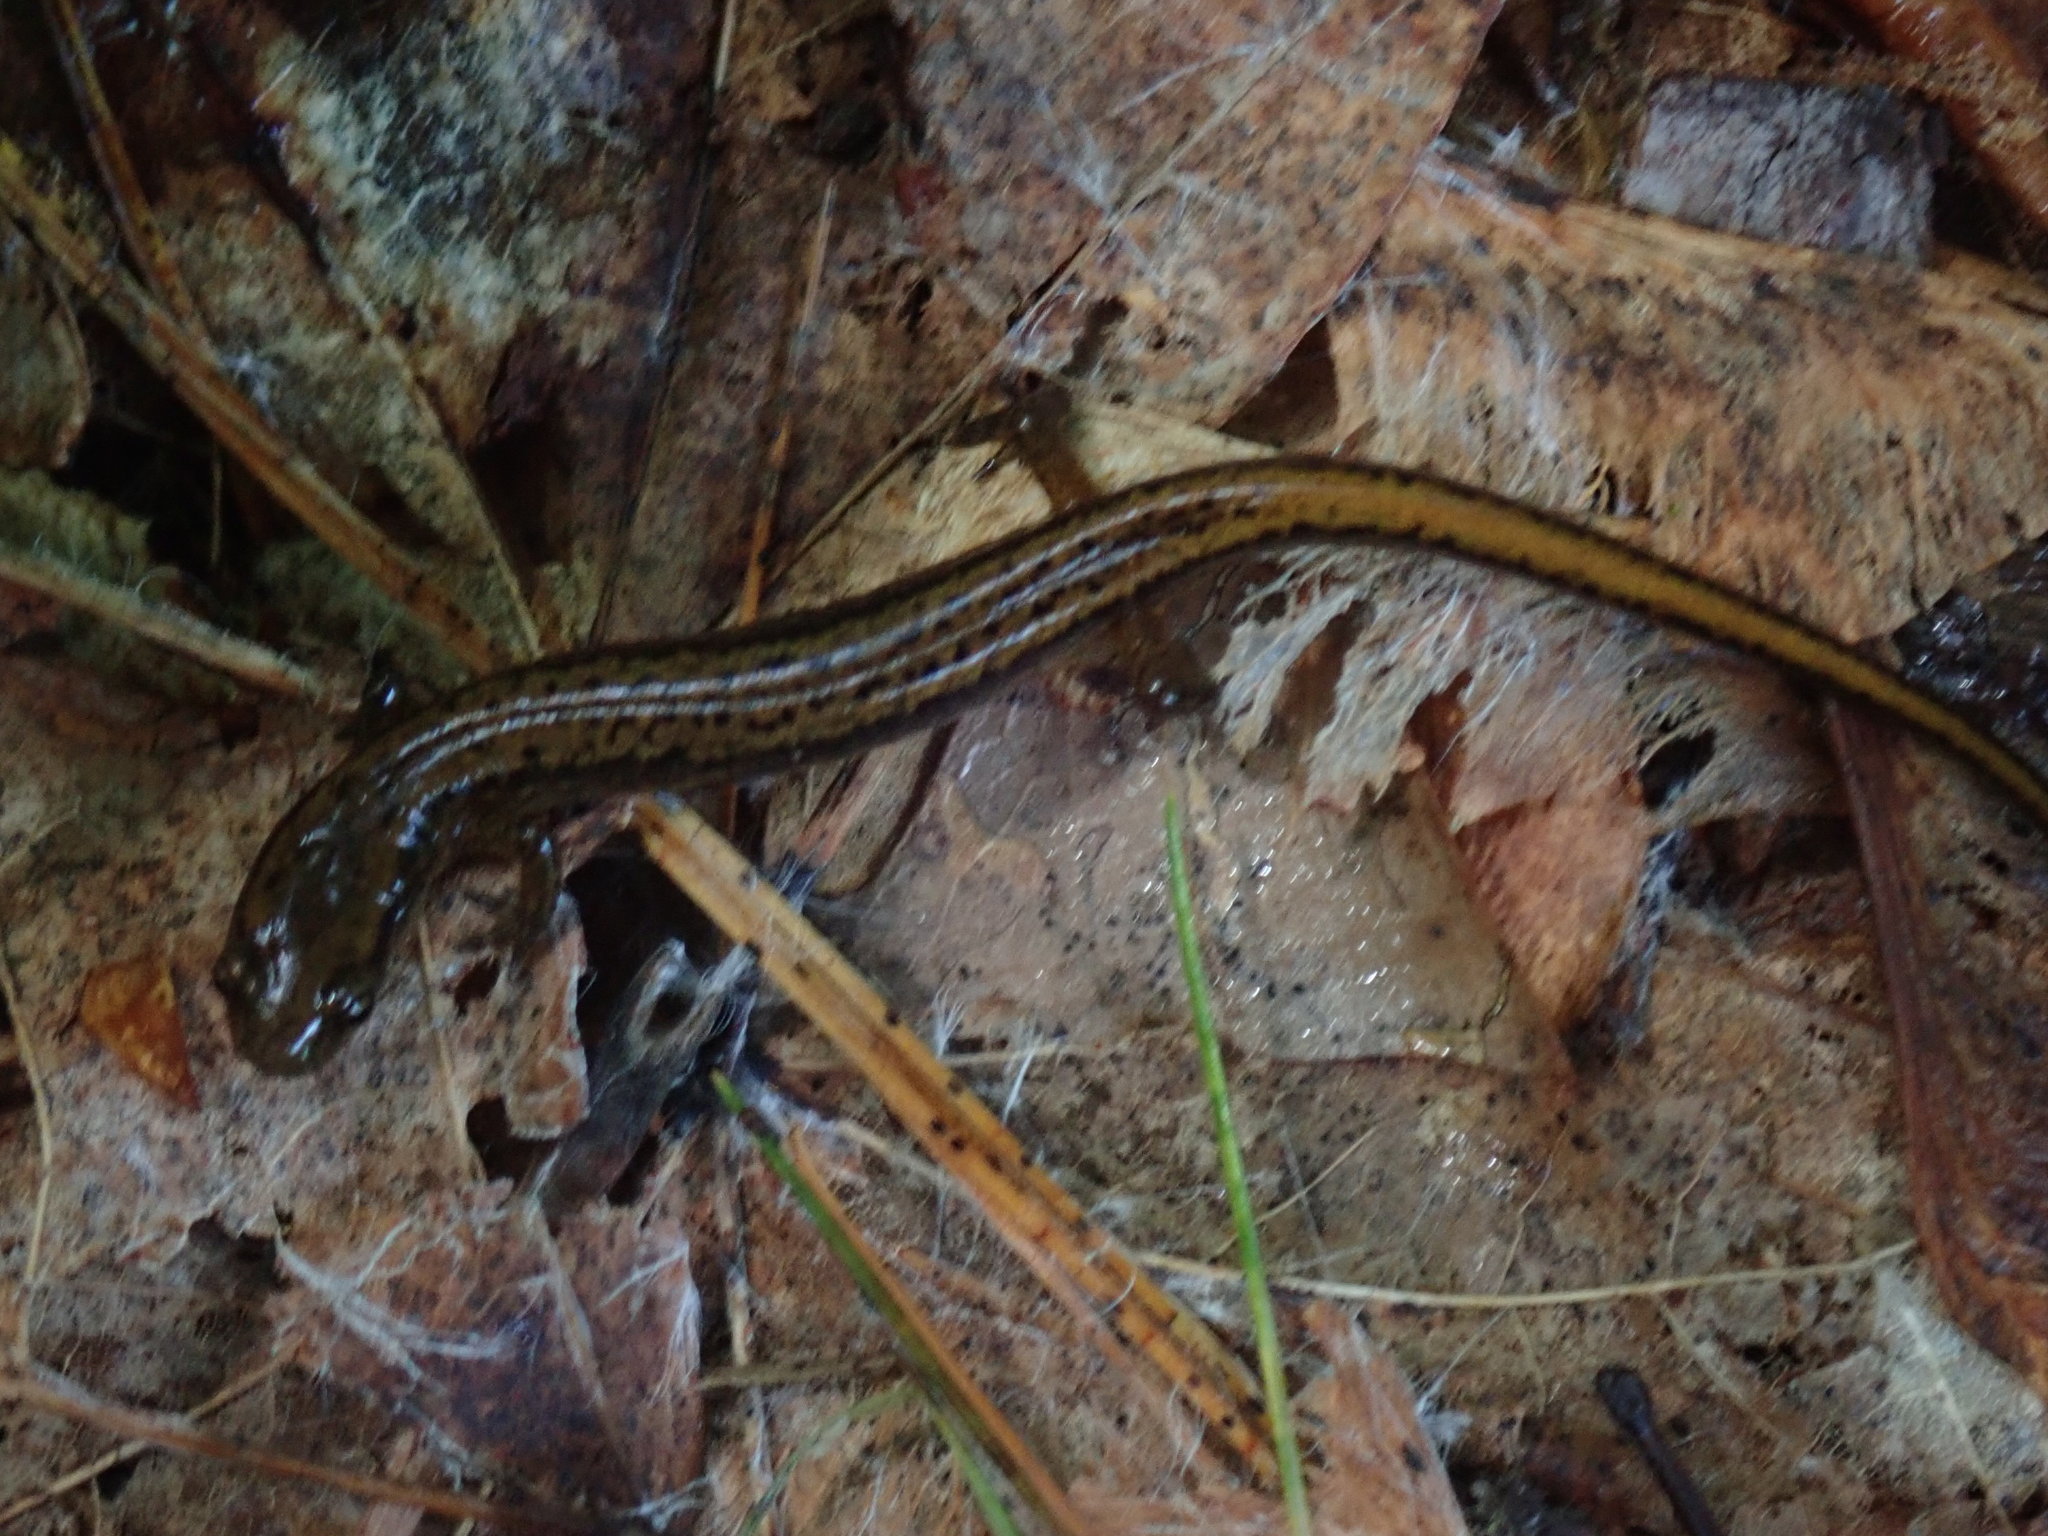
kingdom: Animalia
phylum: Chordata
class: Amphibia
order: Caudata
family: Plethodontidae
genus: Eurycea
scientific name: Eurycea bislineata
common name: Northern two-lined salamander
